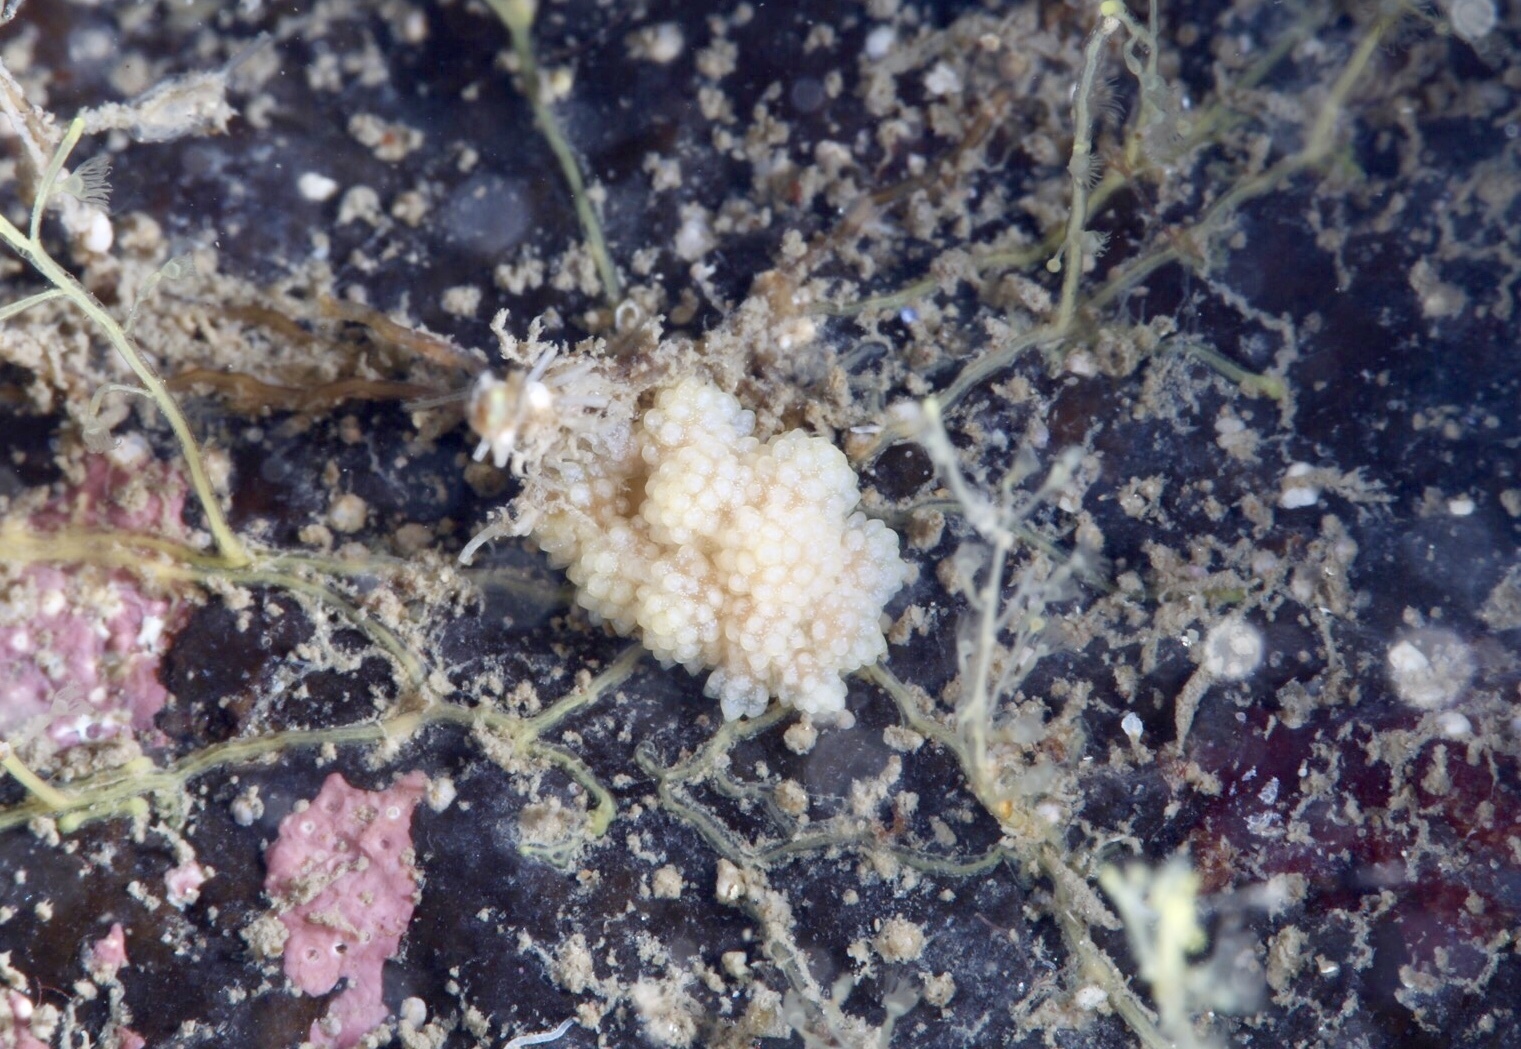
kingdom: Animalia
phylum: Mollusca
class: Gastropoda
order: Nudibranchia
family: Dotidae
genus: Doto
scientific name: Doto fragilis
